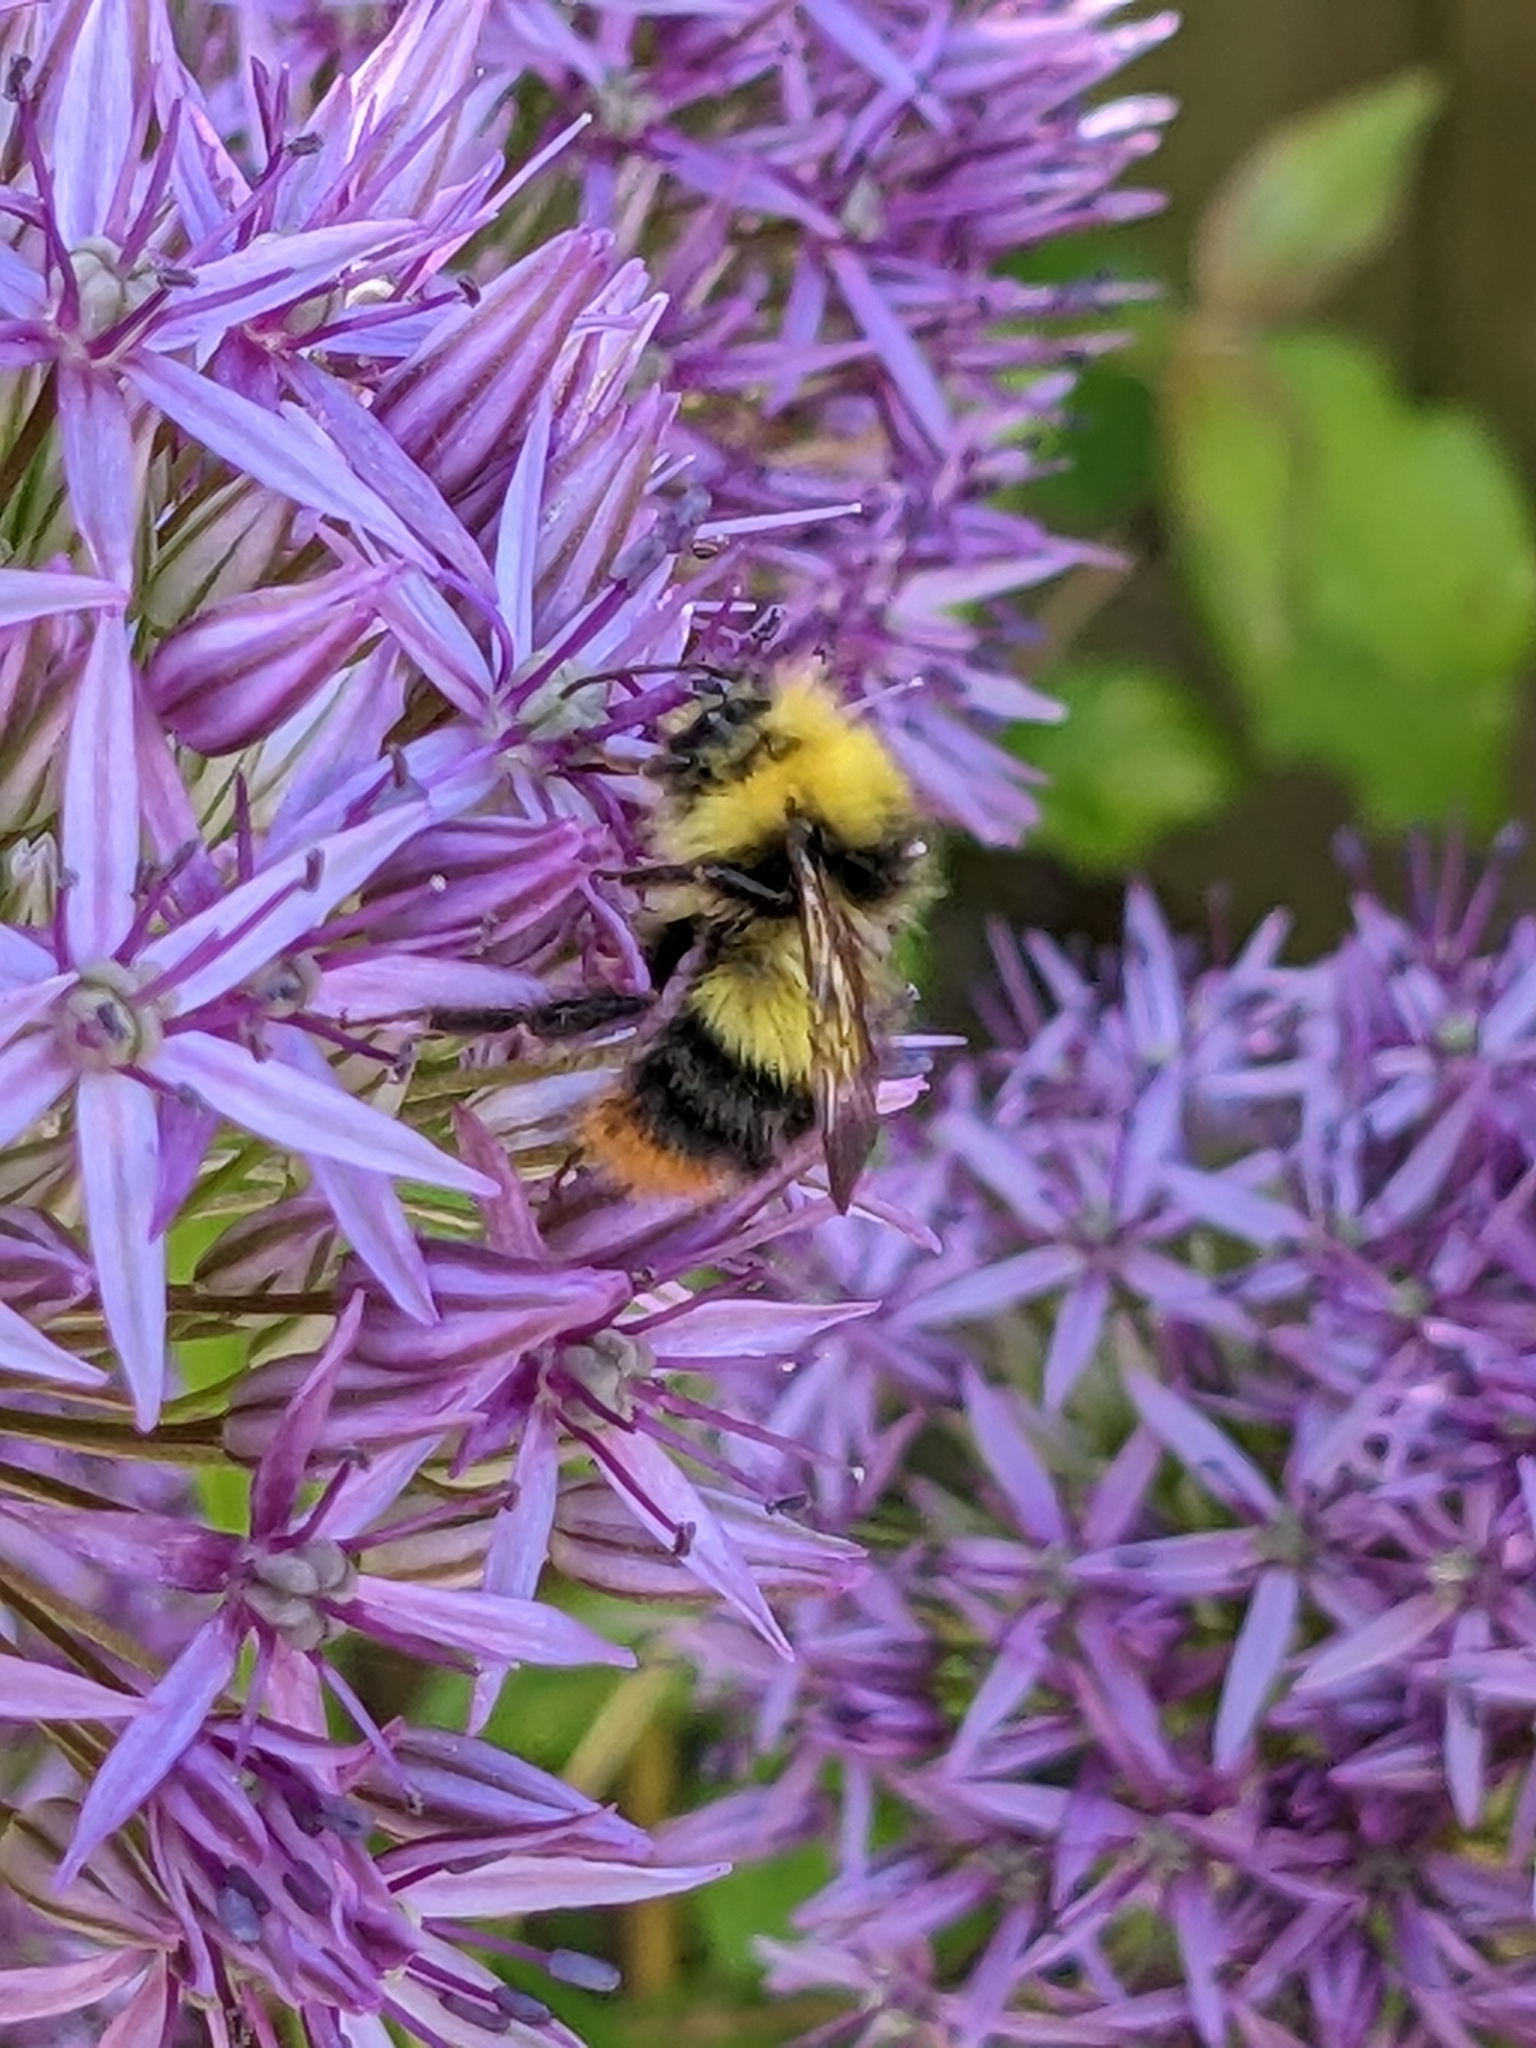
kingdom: Animalia
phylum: Arthropoda
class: Insecta
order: Hymenoptera
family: Apidae
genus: Bombus
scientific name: Bombus pratorum
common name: Early humble-bee
